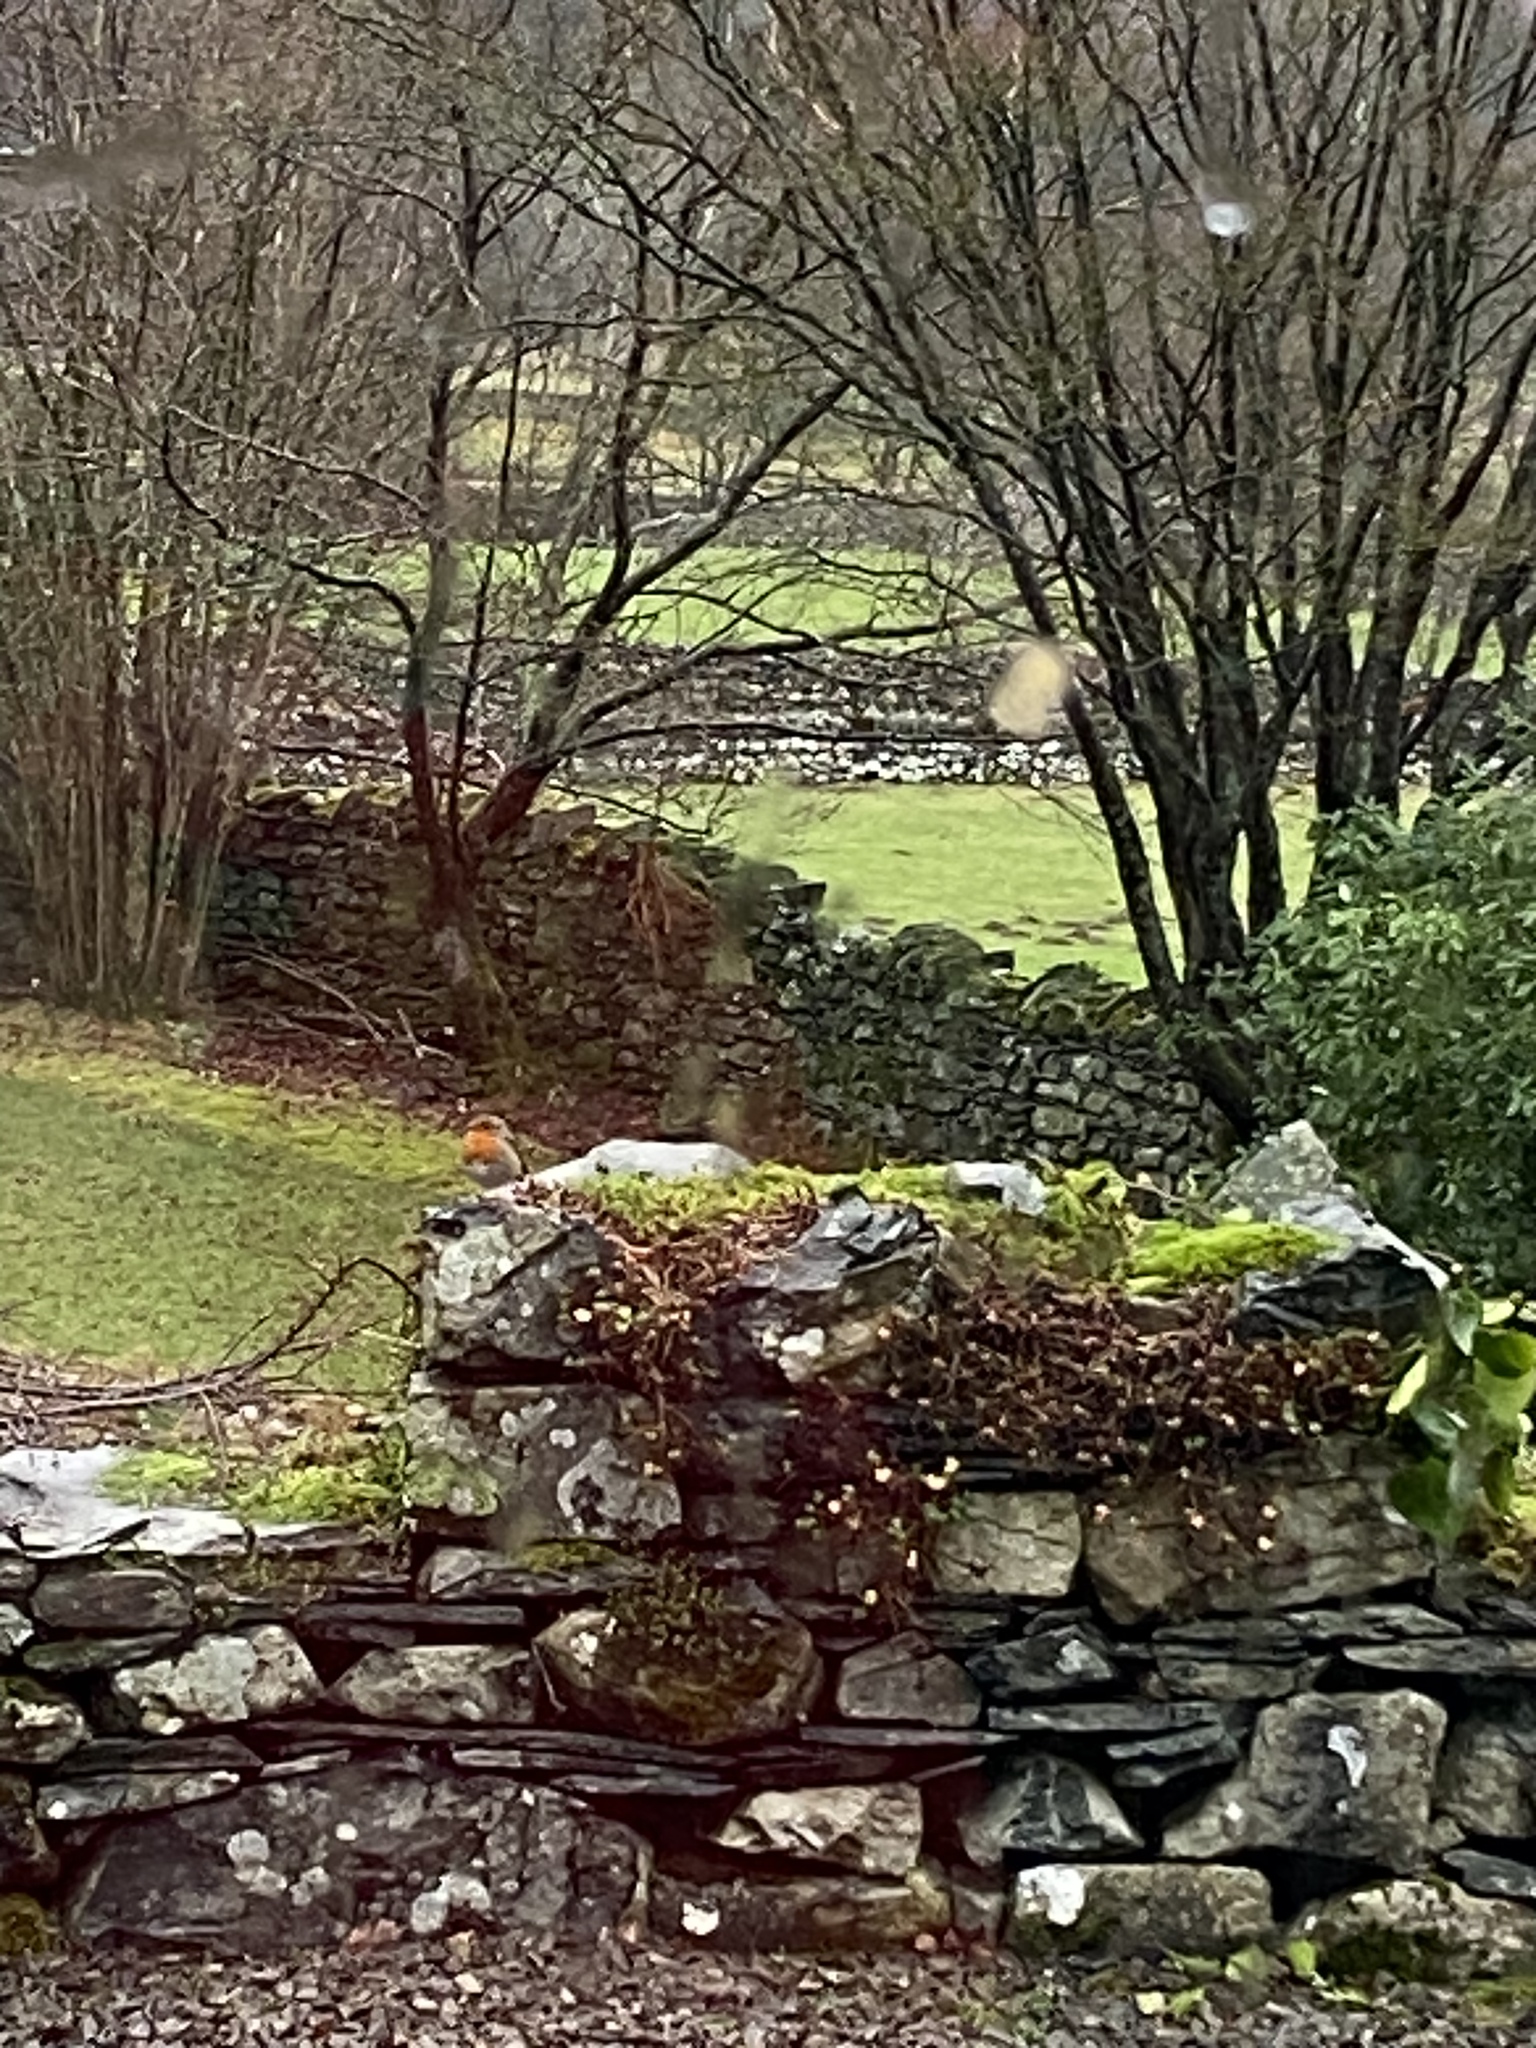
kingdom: Animalia
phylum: Chordata
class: Aves
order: Passeriformes
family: Muscicapidae
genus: Erithacus
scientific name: Erithacus rubecula
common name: European robin
